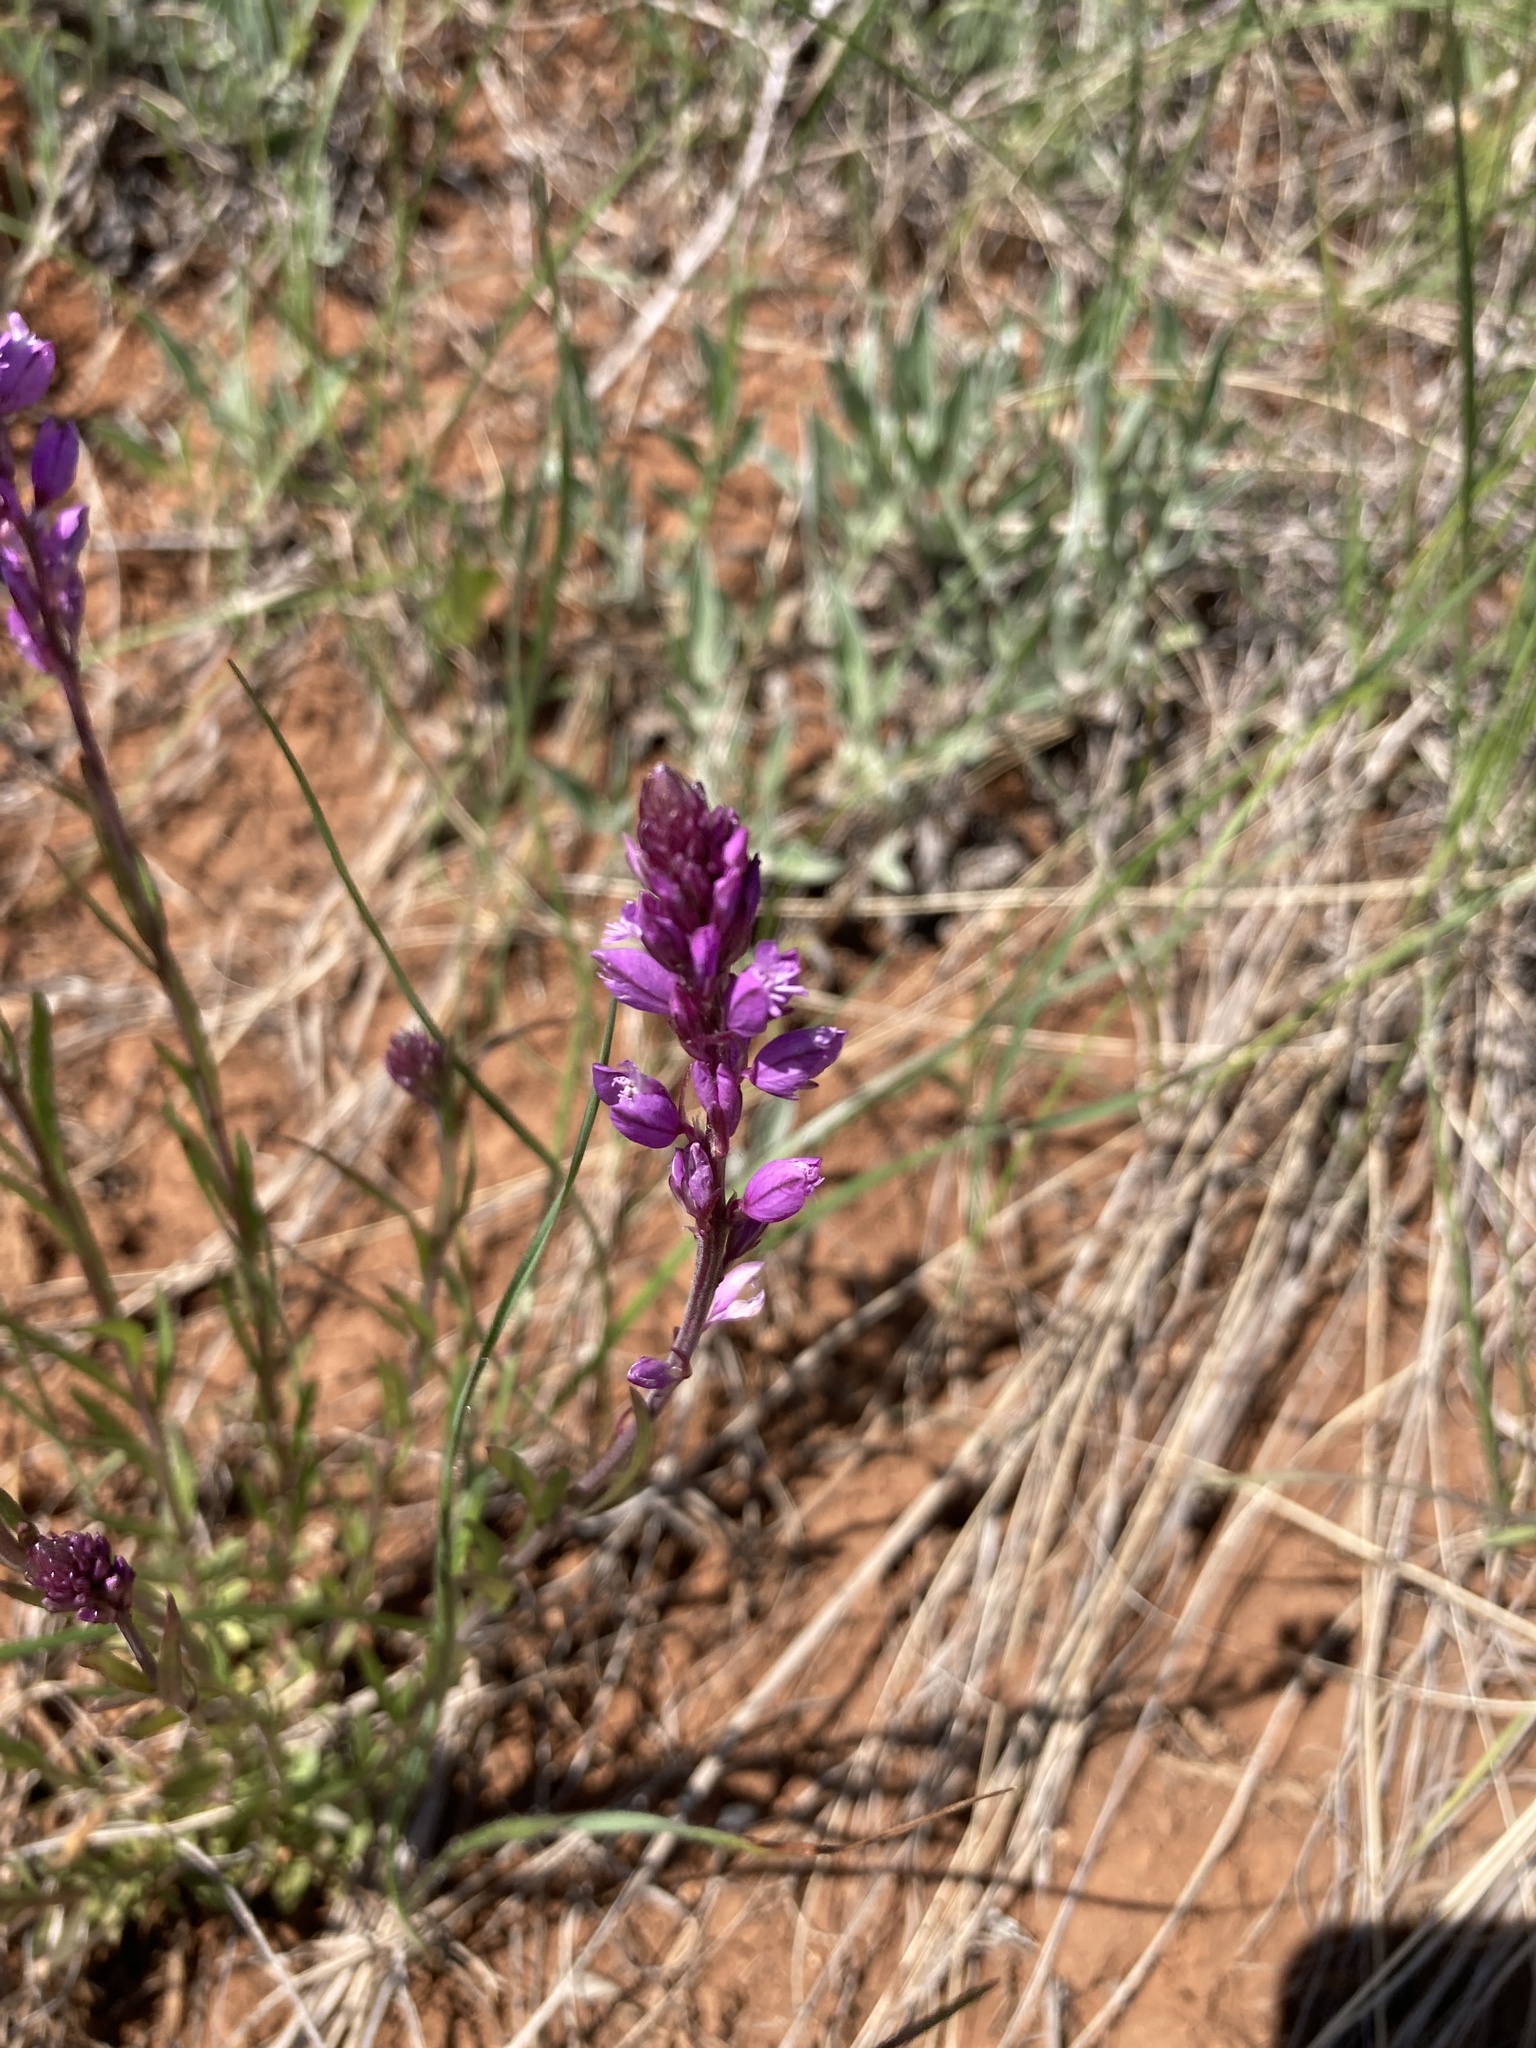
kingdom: Plantae
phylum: Tracheophyta
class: Magnoliopsida
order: Fabales
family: Polygalaceae
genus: Polygala
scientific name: Polygala nicaeensis
